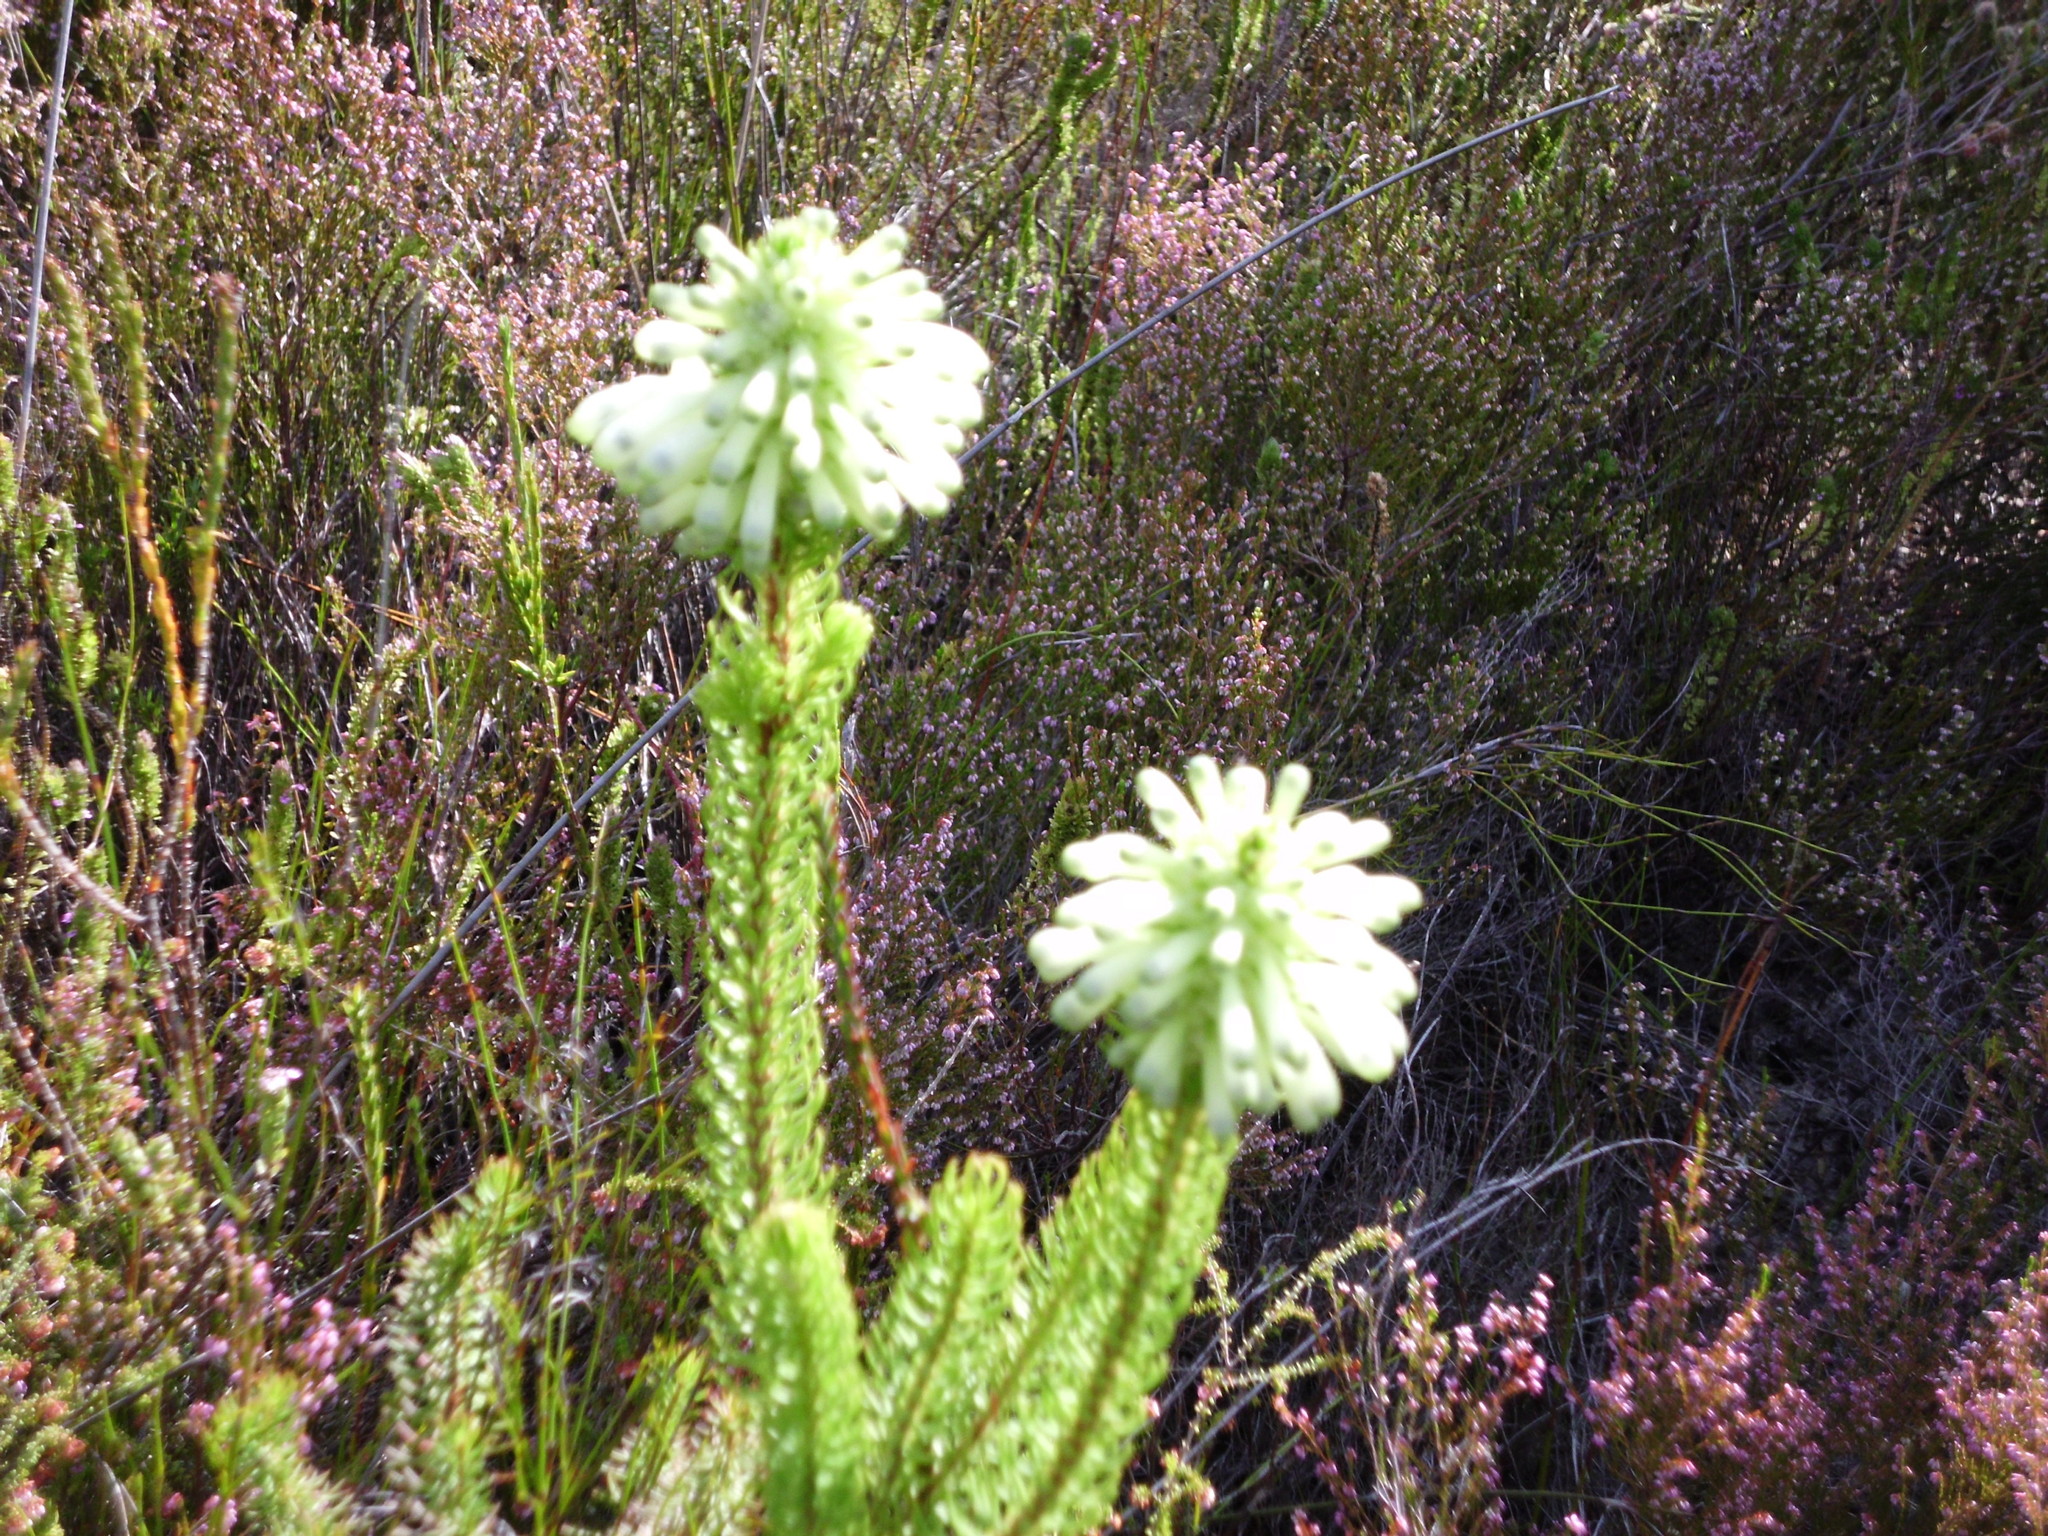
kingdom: Plantae
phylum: Tracheophyta
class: Magnoliopsida
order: Ericales
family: Ericaceae
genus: Erica
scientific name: Erica sessiliflora
